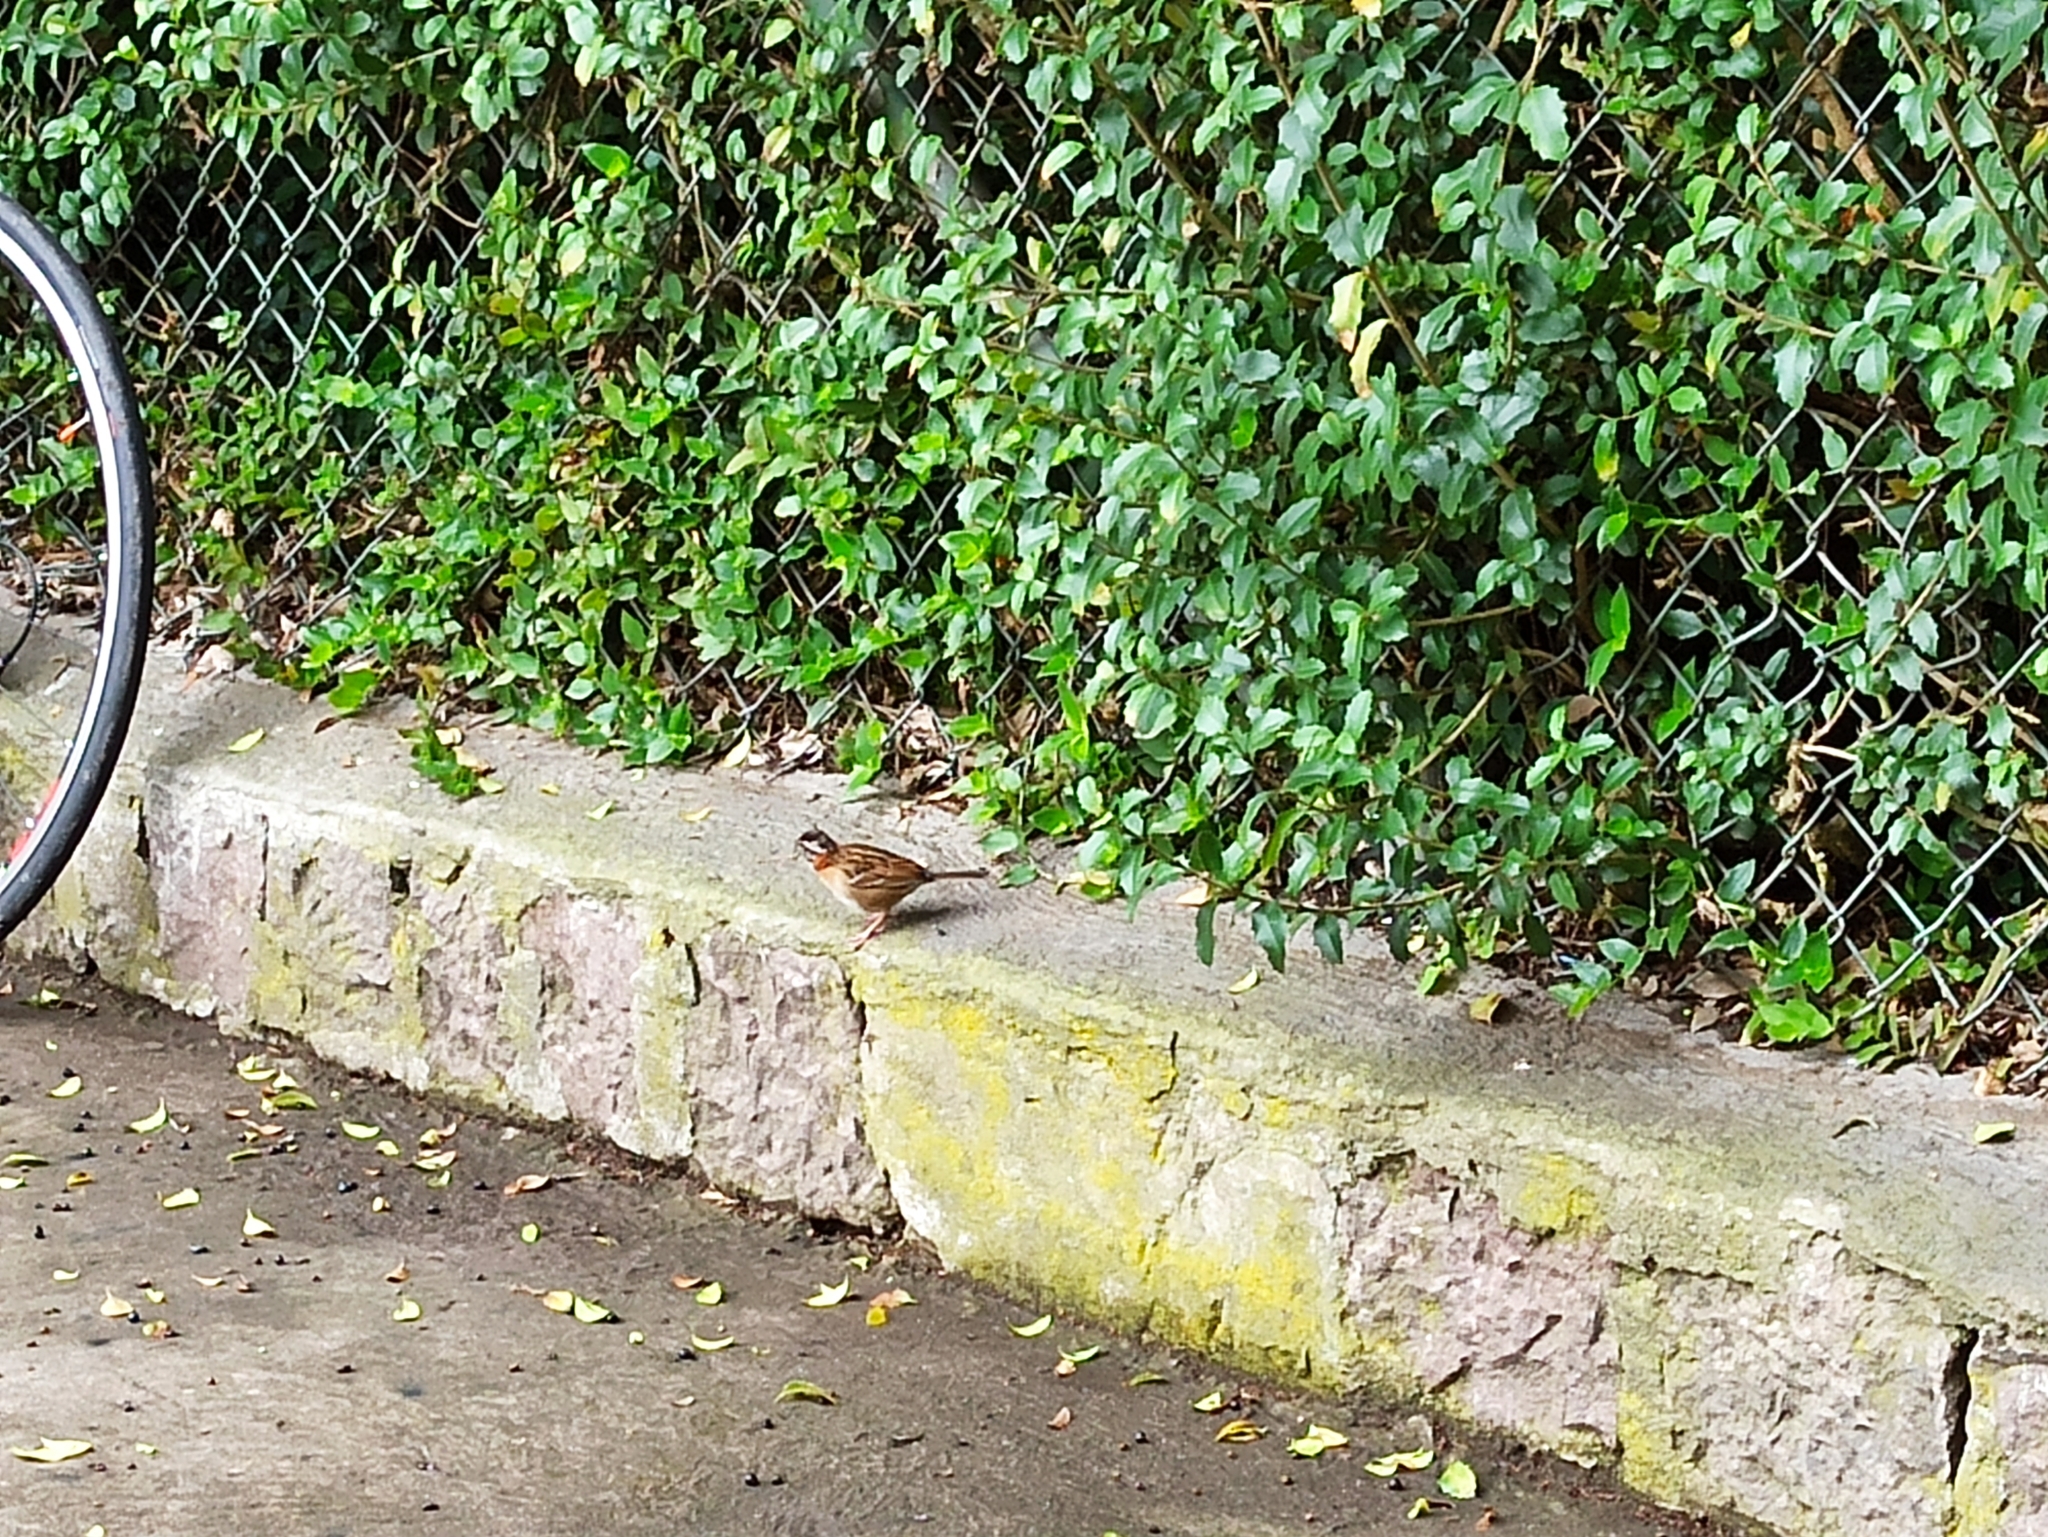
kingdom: Animalia
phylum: Chordata
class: Aves
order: Passeriformes
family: Passerellidae
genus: Zonotrichia
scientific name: Zonotrichia capensis
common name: Rufous-collared sparrow
